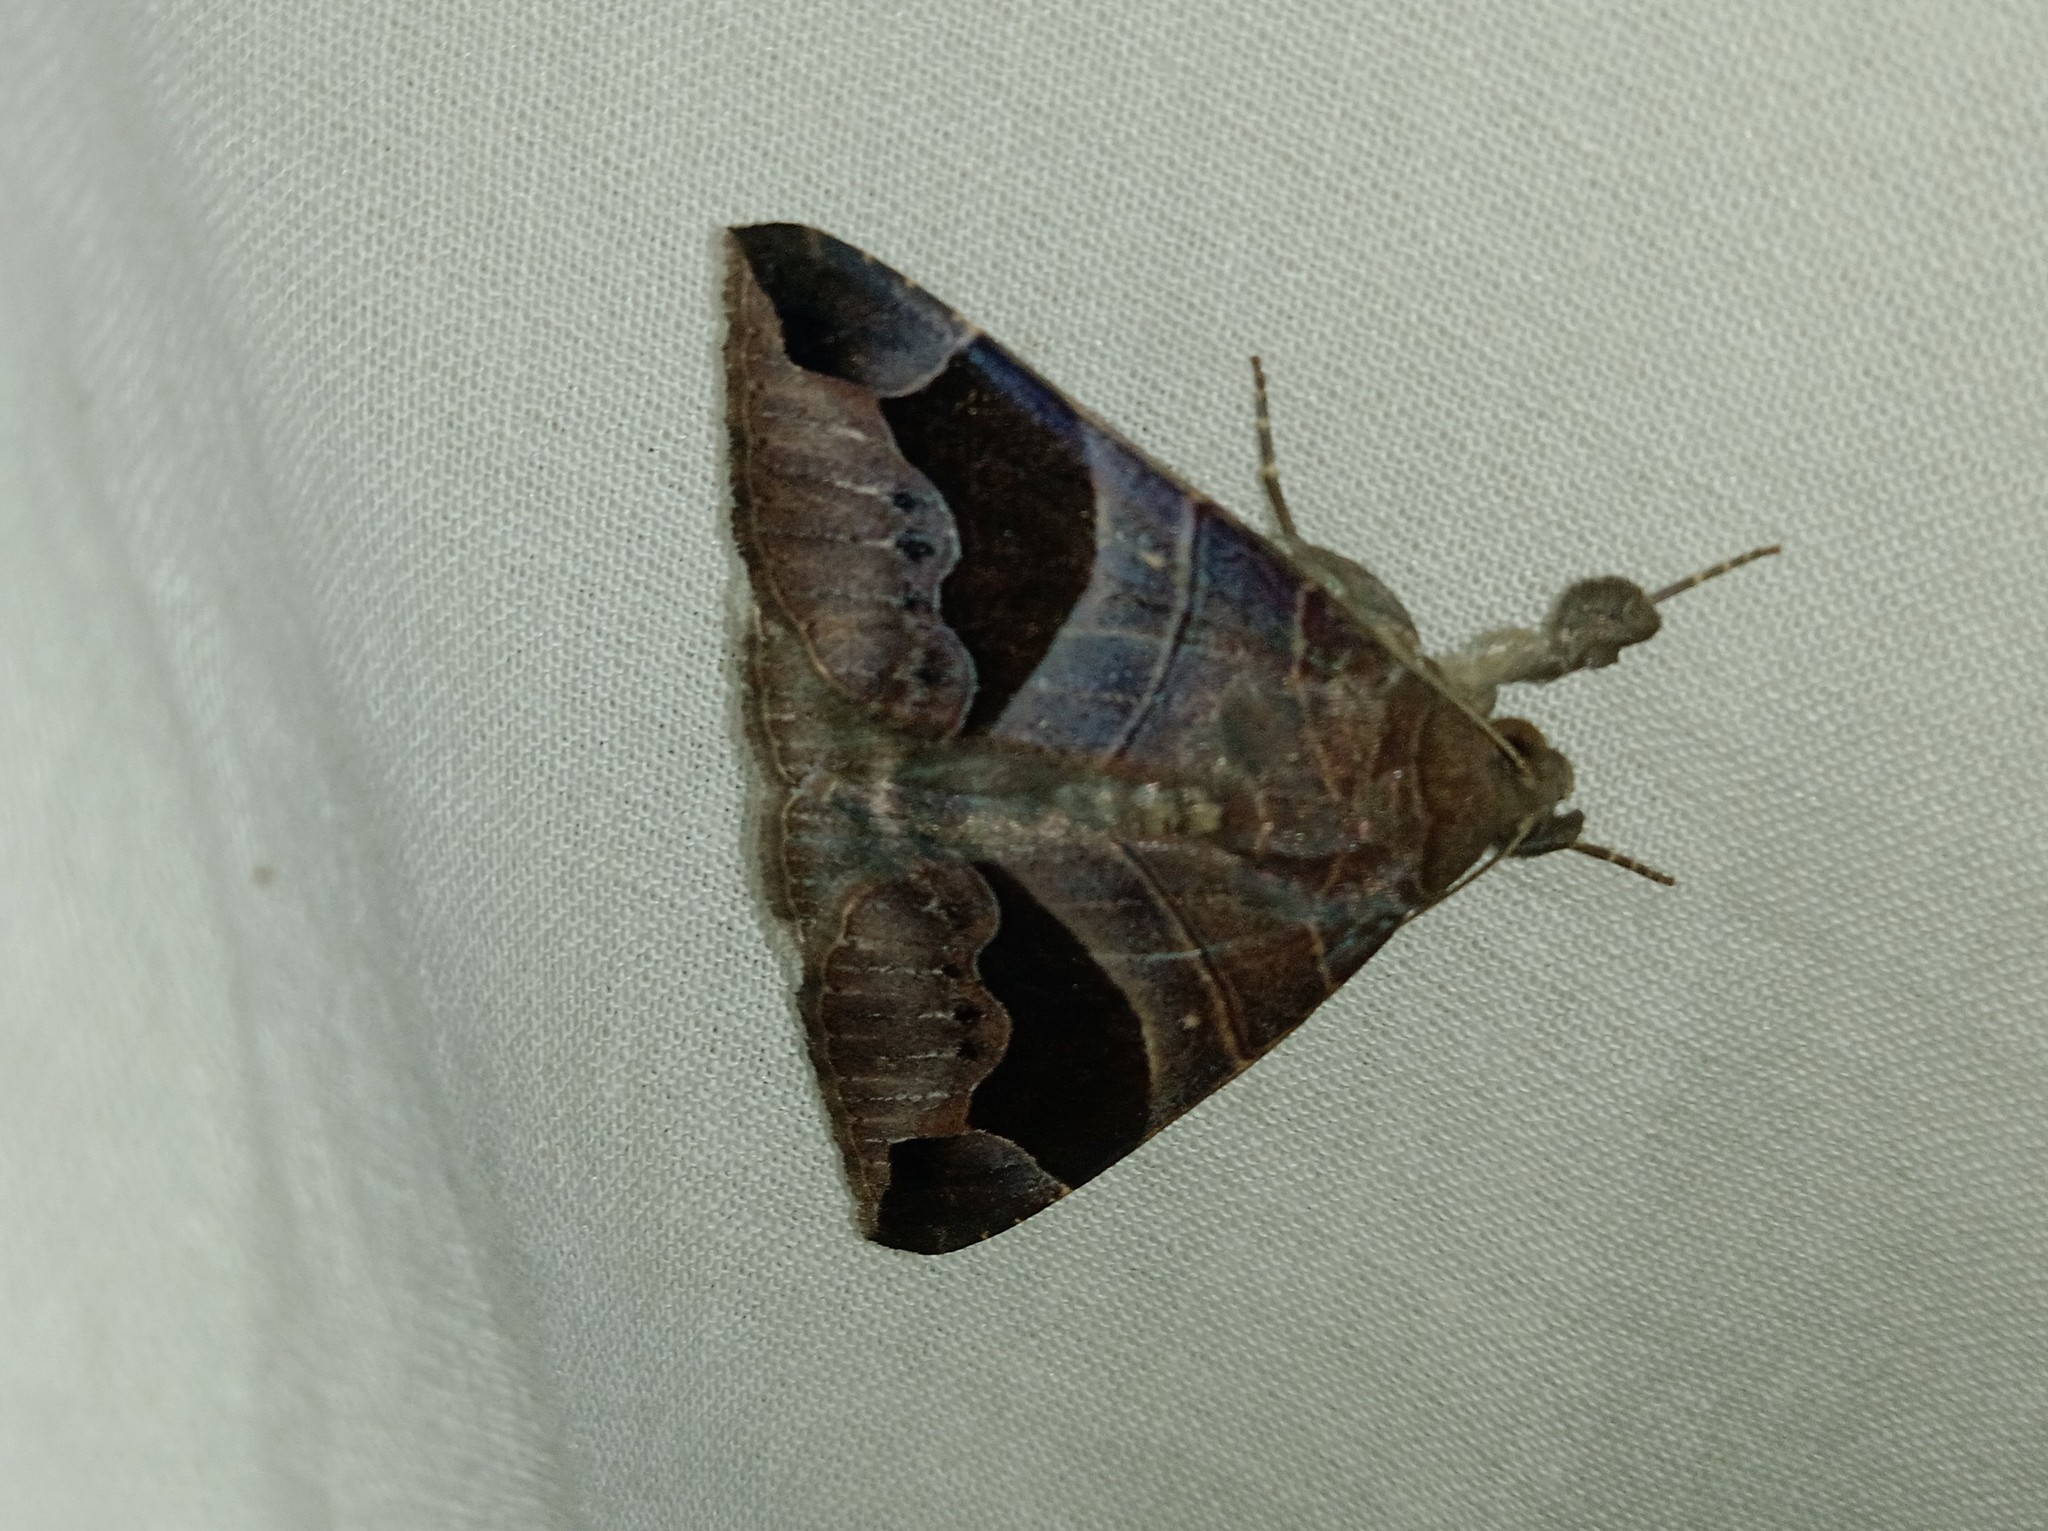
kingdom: Animalia
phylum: Arthropoda
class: Insecta
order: Lepidoptera
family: Erebidae
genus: Bastilla
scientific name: Bastilla joviana
